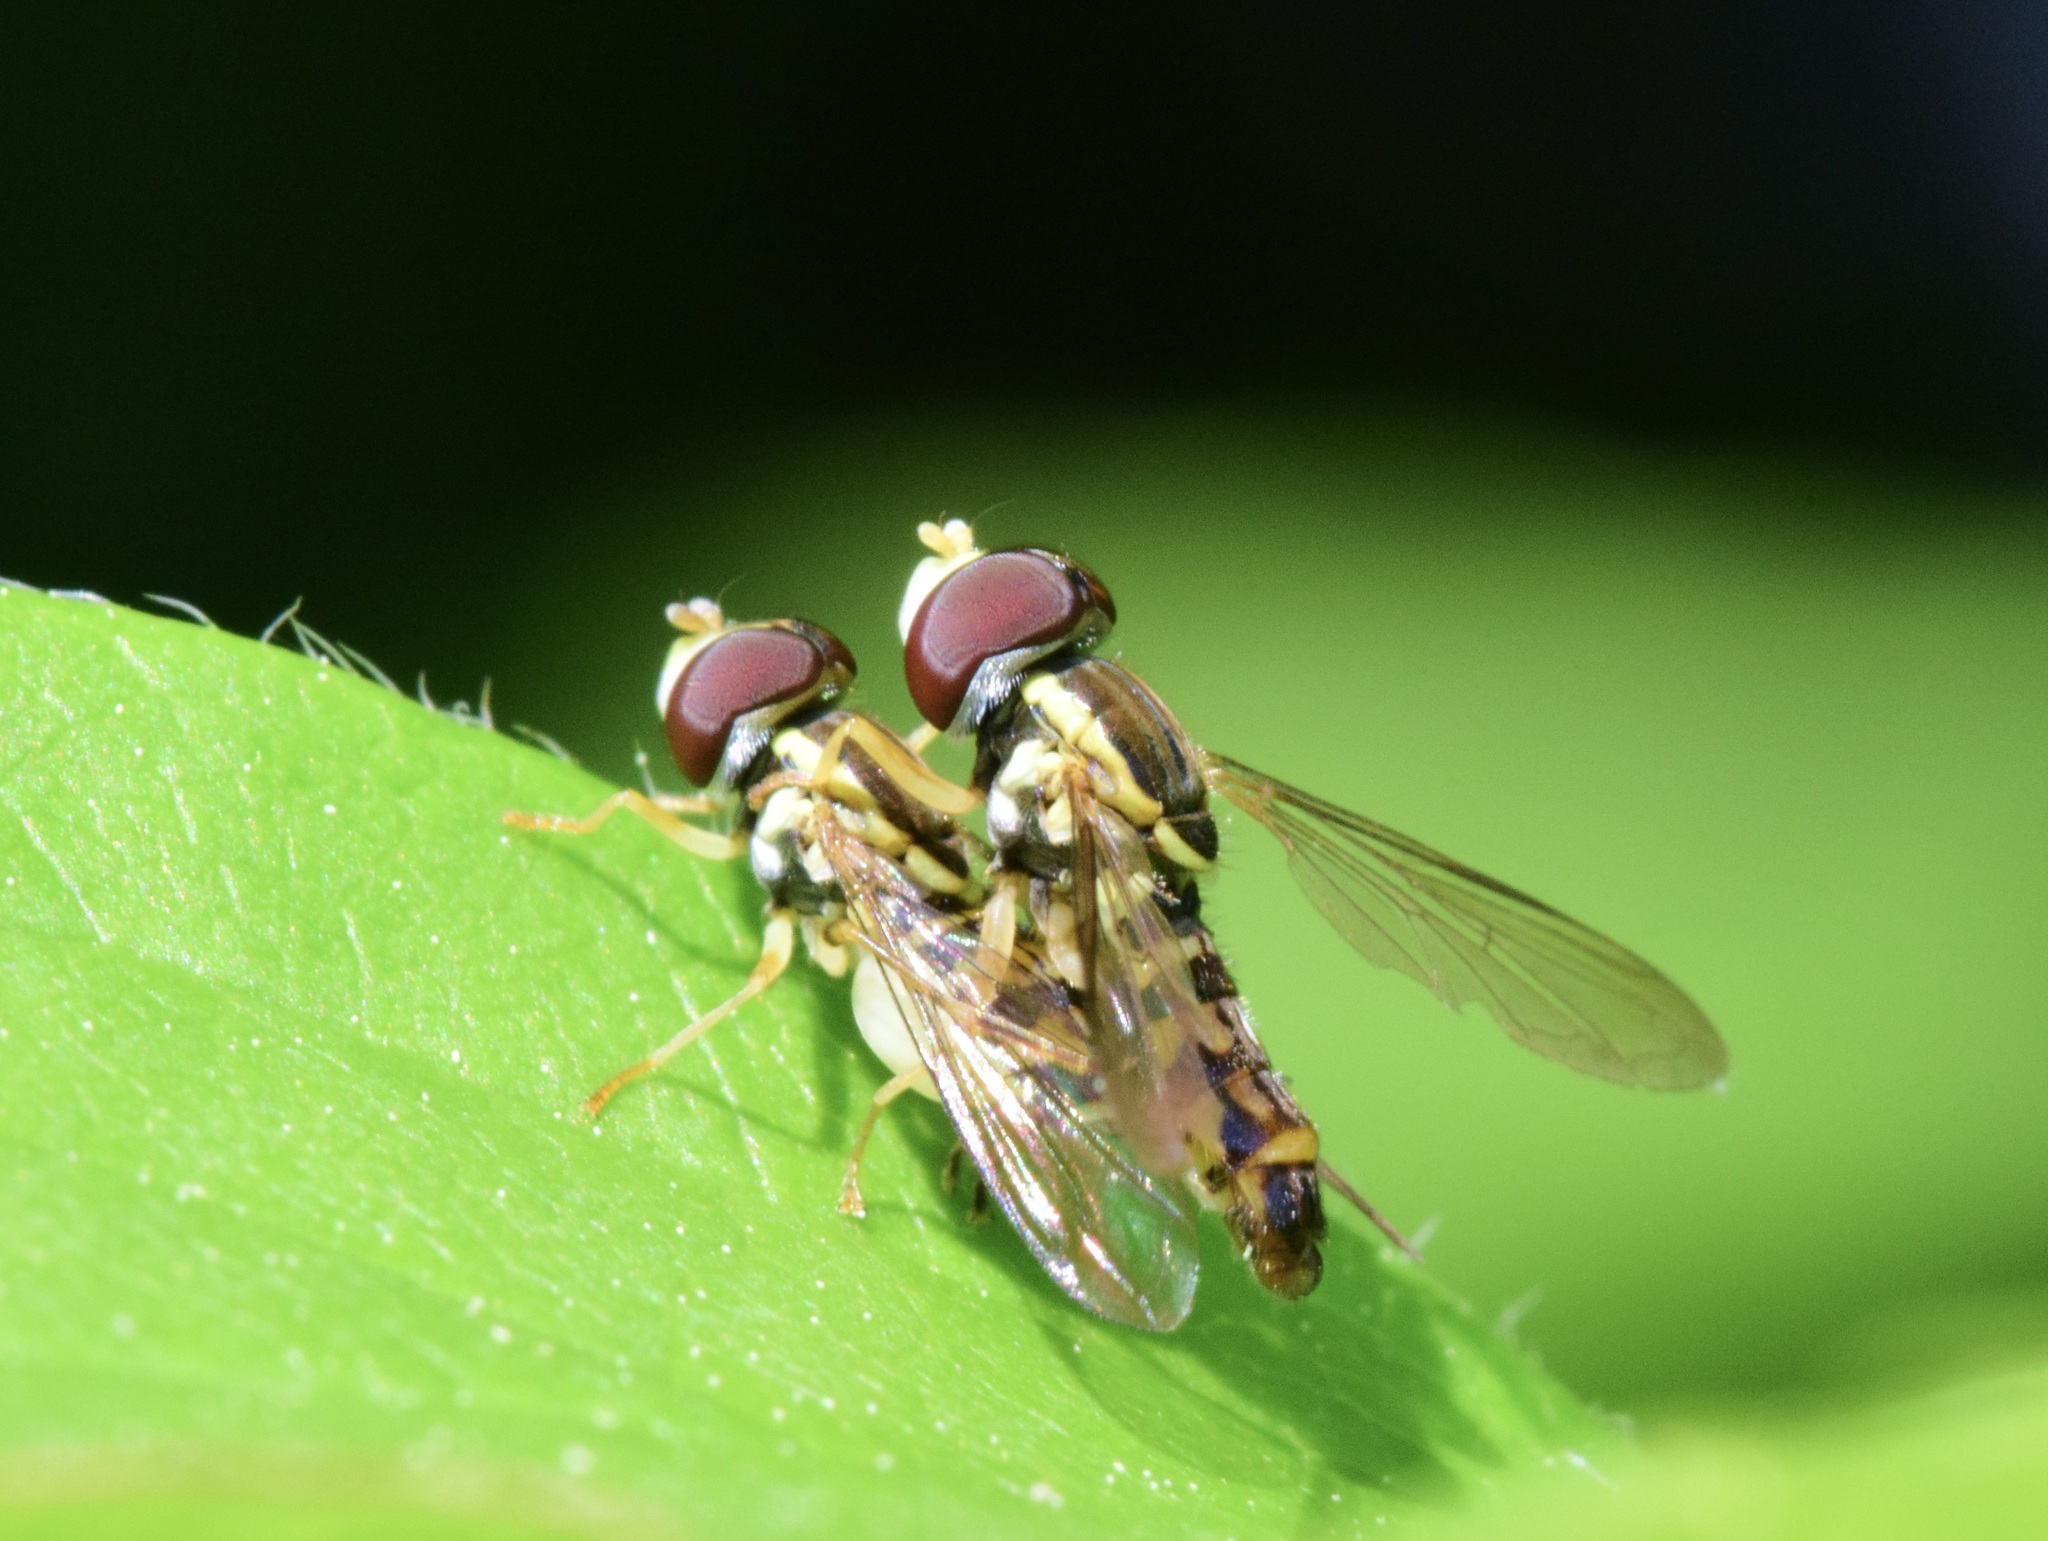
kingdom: Animalia
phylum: Arthropoda
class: Insecta
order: Diptera
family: Syrphidae
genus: Toxomerus
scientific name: Toxomerus geminatus
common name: Eastern calligrapher
